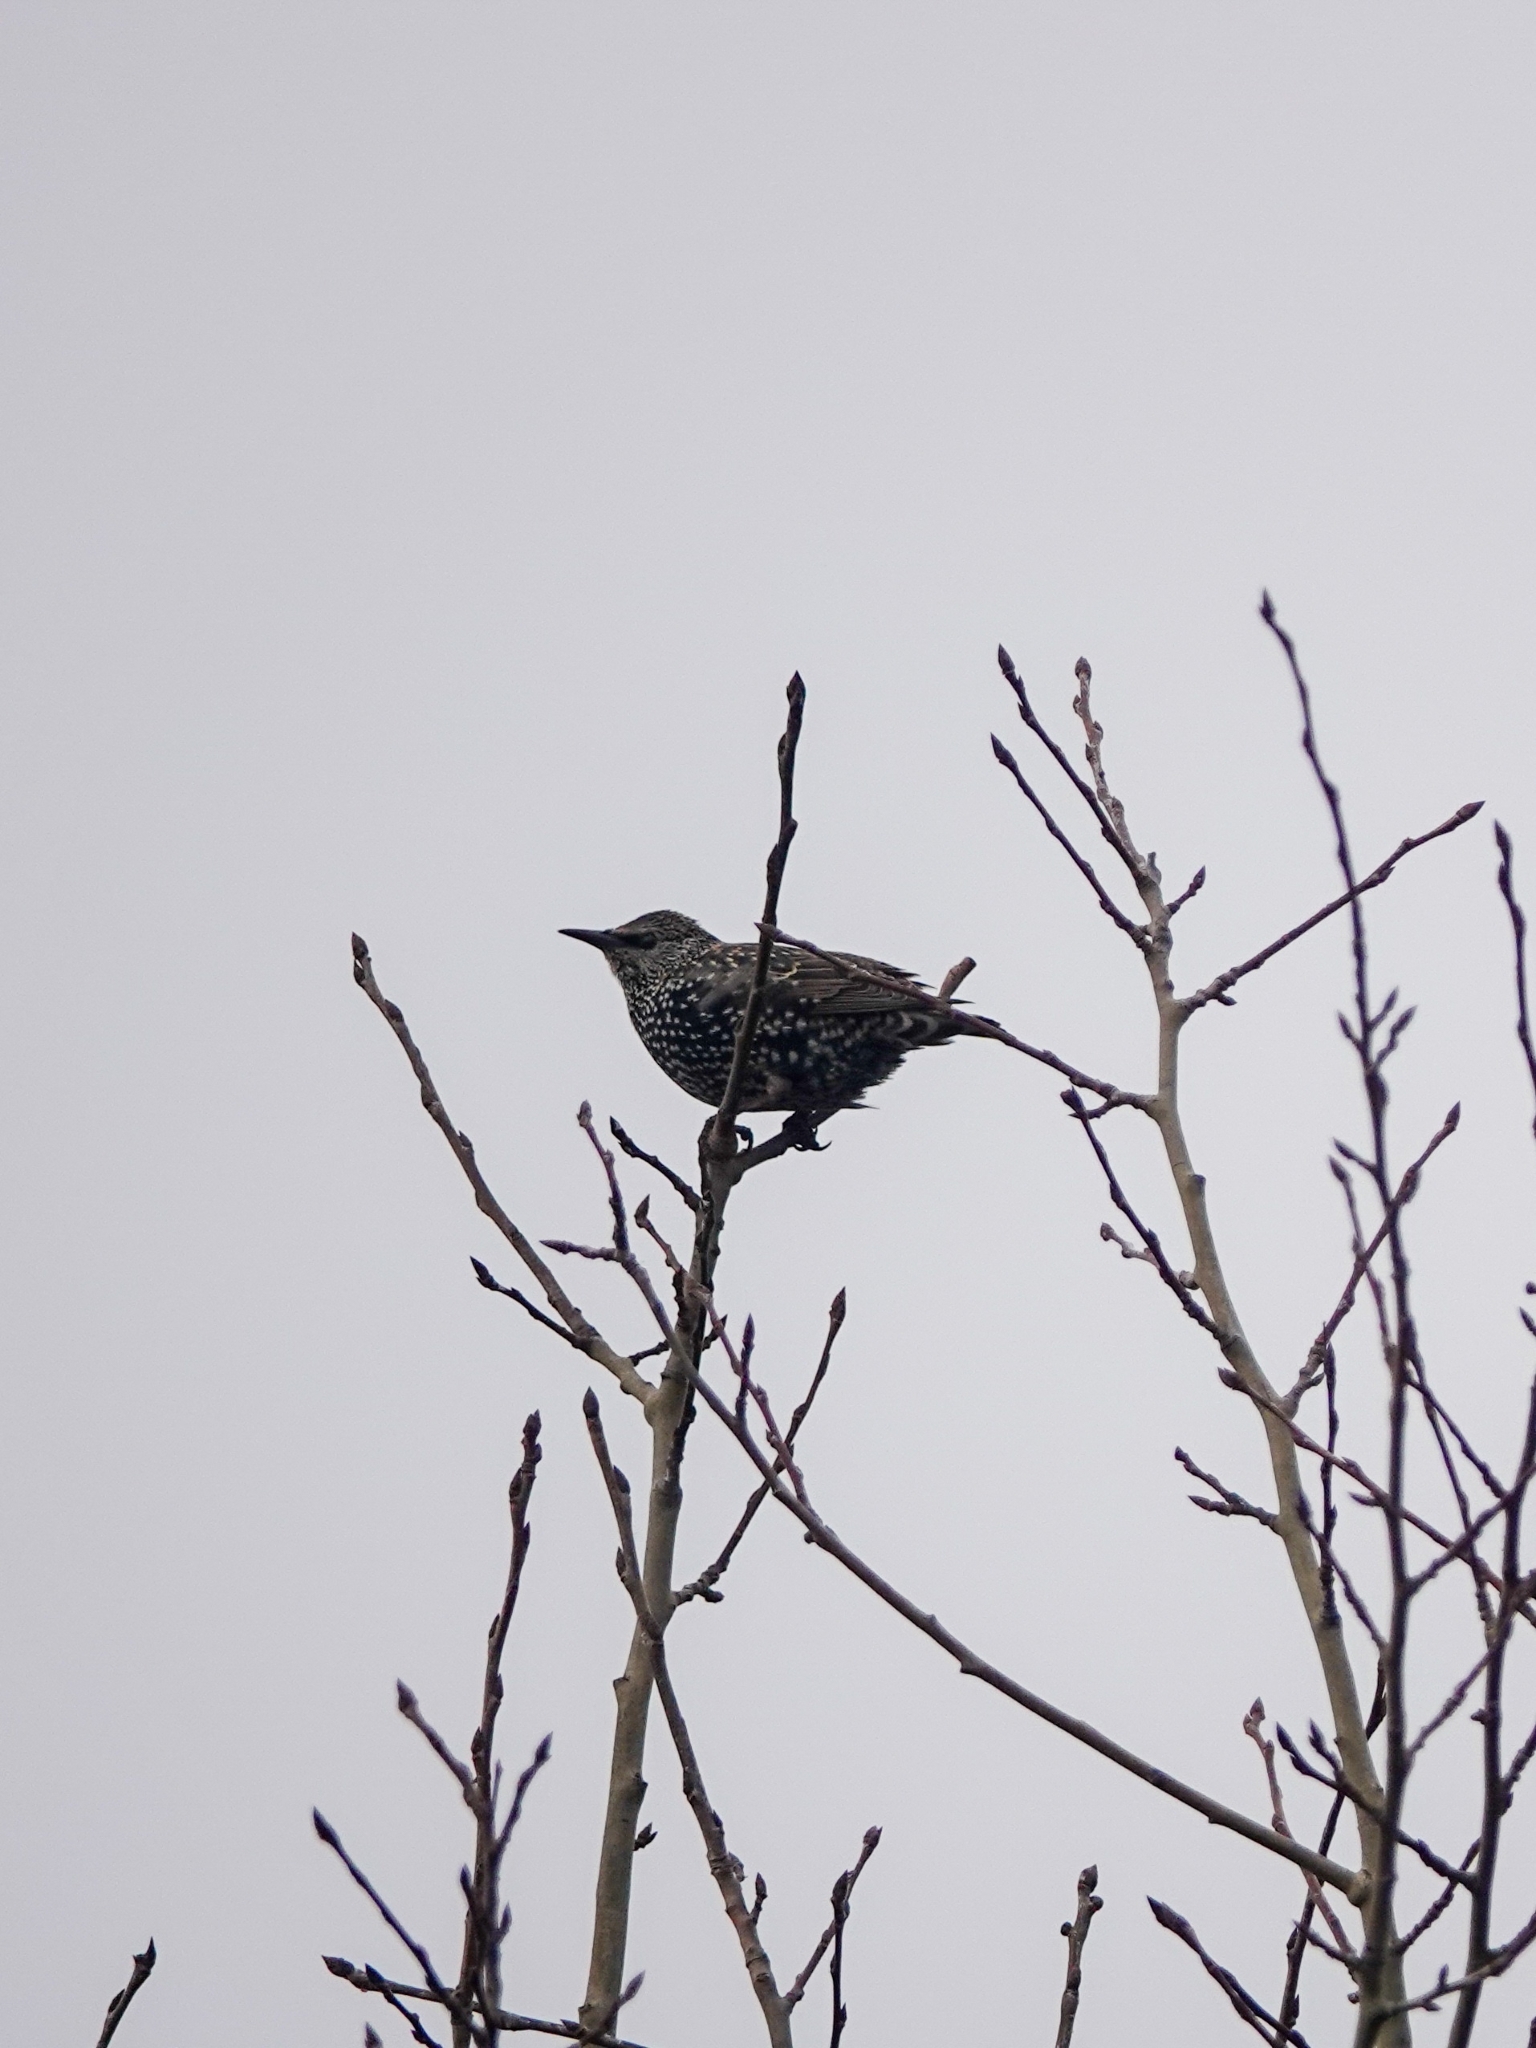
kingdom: Animalia
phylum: Chordata
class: Aves
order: Passeriformes
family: Sturnidae
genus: Sturnus
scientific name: Sturnus vulgaris
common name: Common starling
